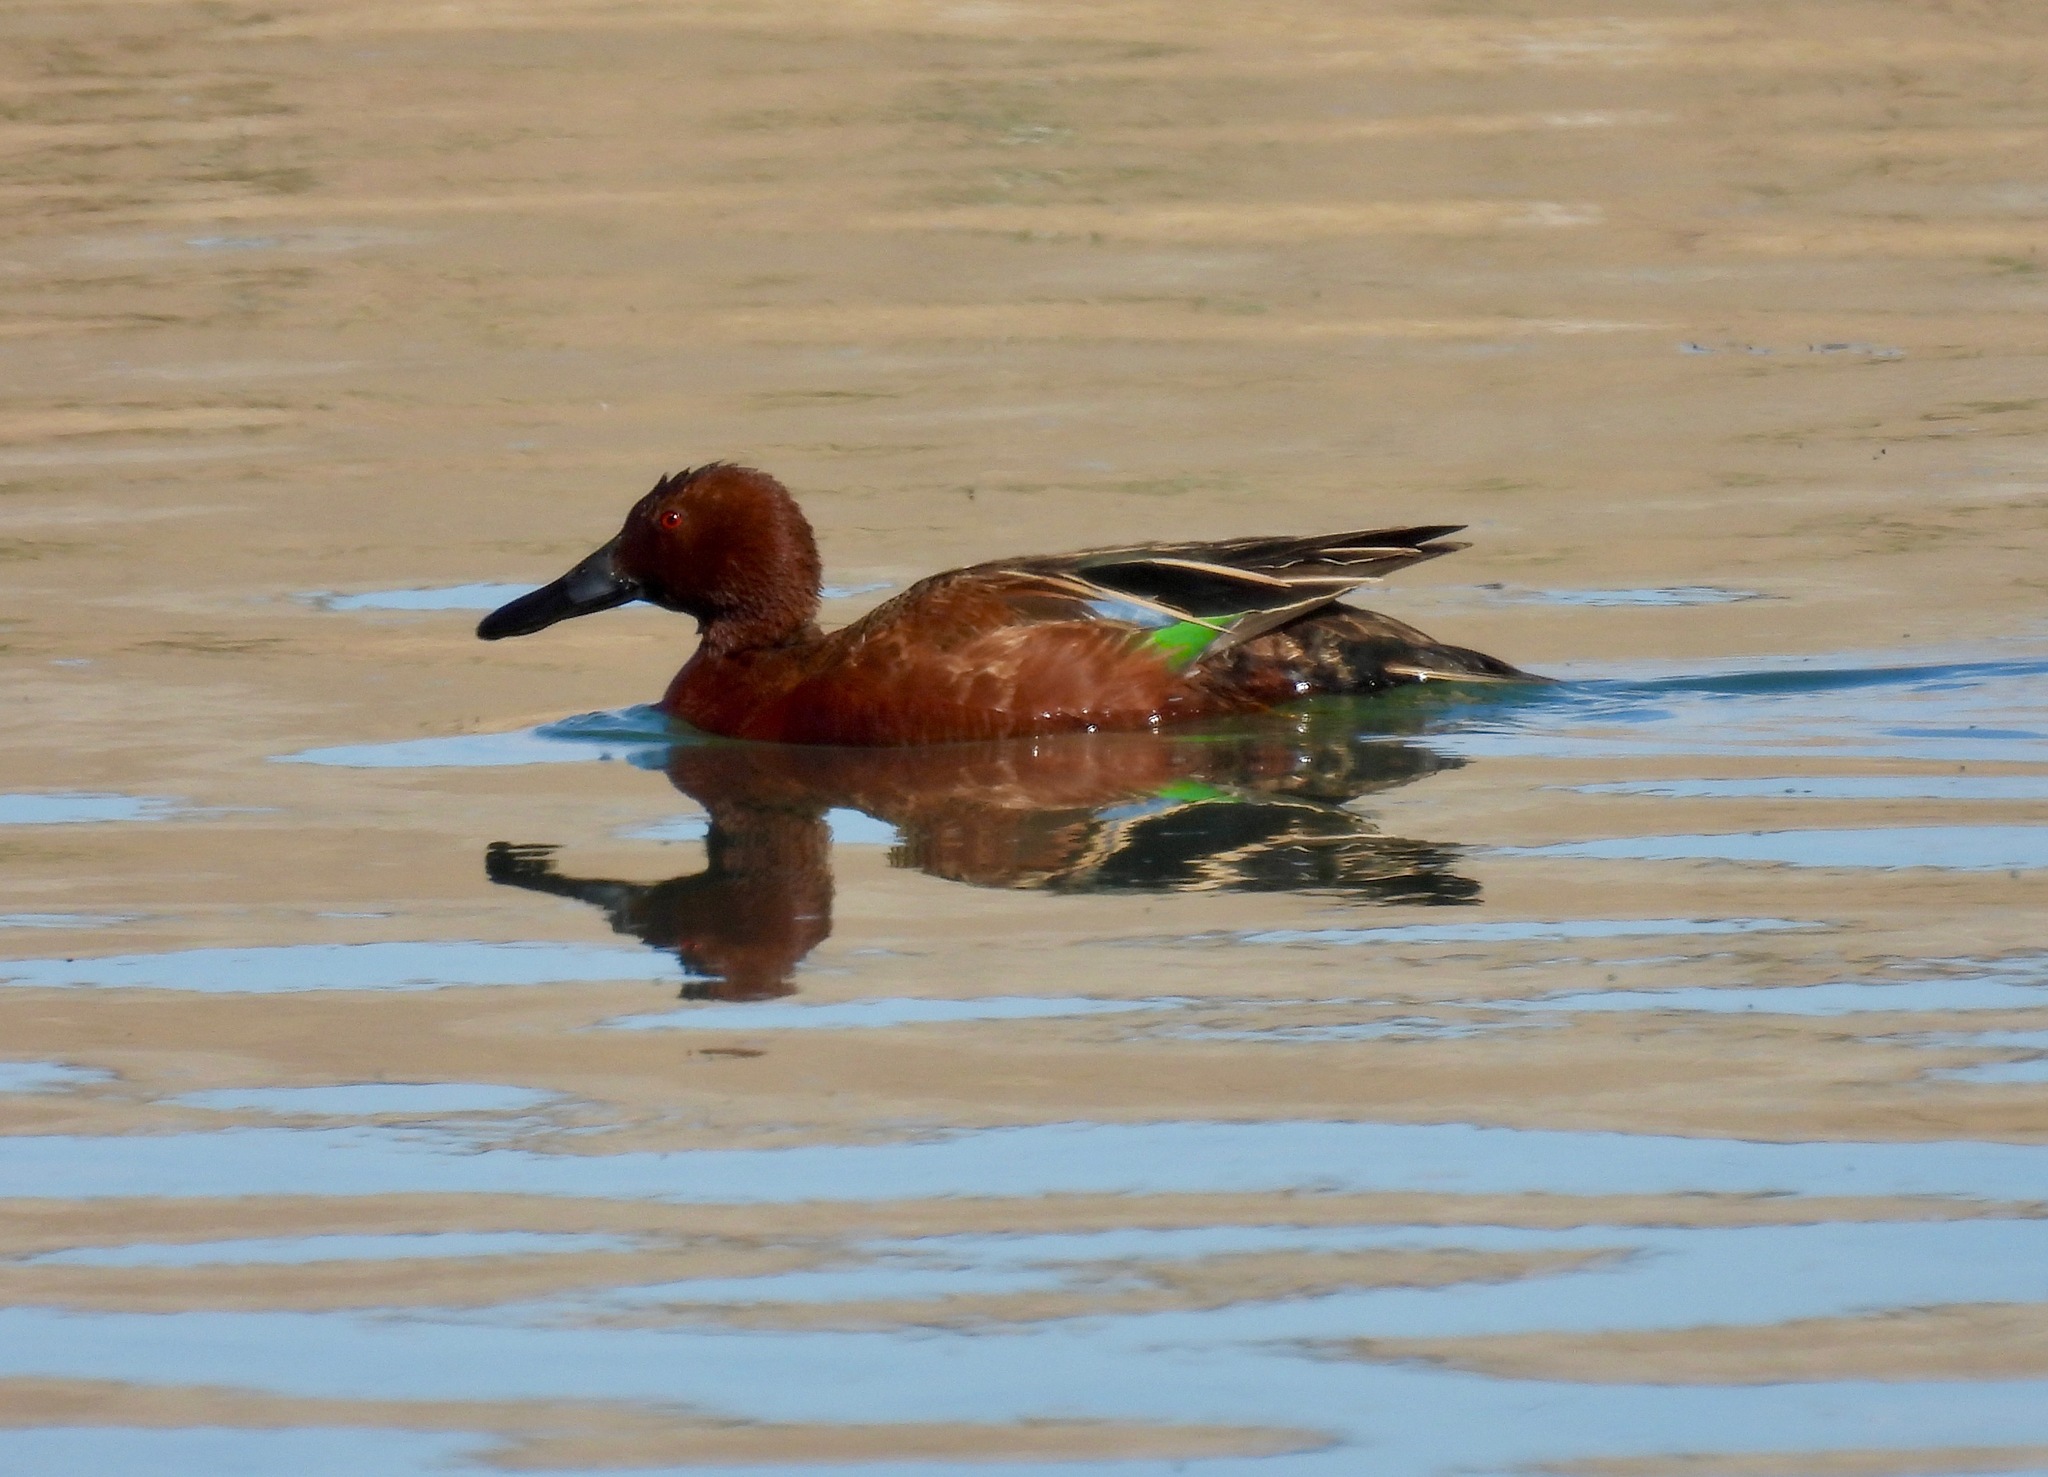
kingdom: Animalia
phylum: Chordata
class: Aves
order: Anseriformes
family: Anatidae
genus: Spatula
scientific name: Spatula cyanoptera
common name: Cinnamon teal
